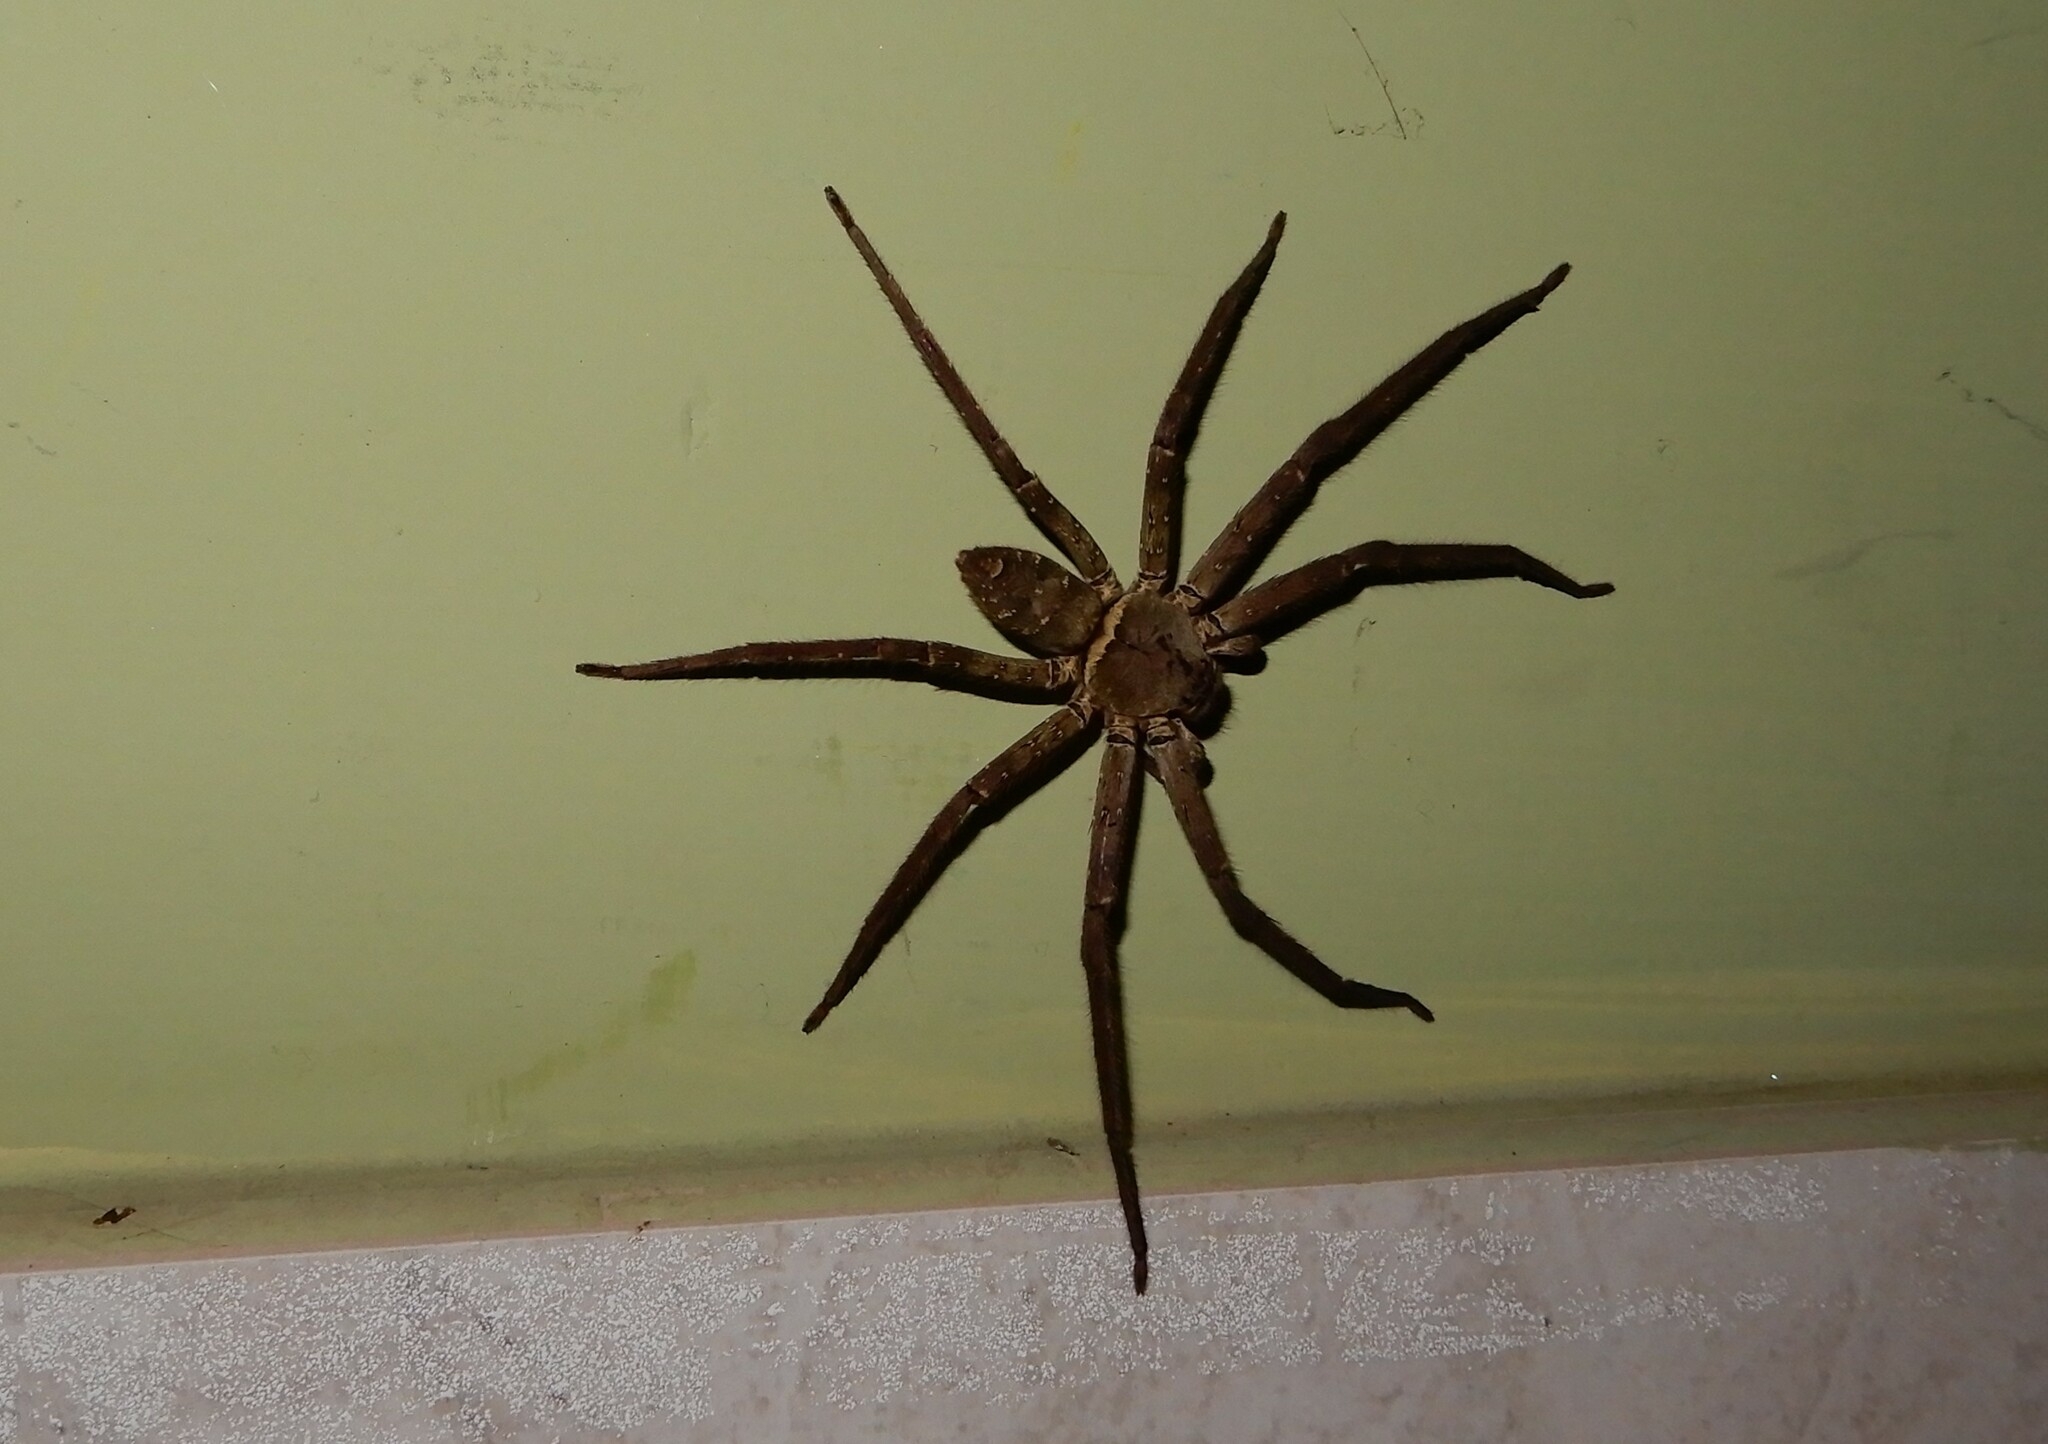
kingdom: Animalia
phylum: Arthropoda
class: Arachnida
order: Araneae
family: Sparassidae
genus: Heteropoda
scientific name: Heteropoda venatoria
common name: Huntsman spider
